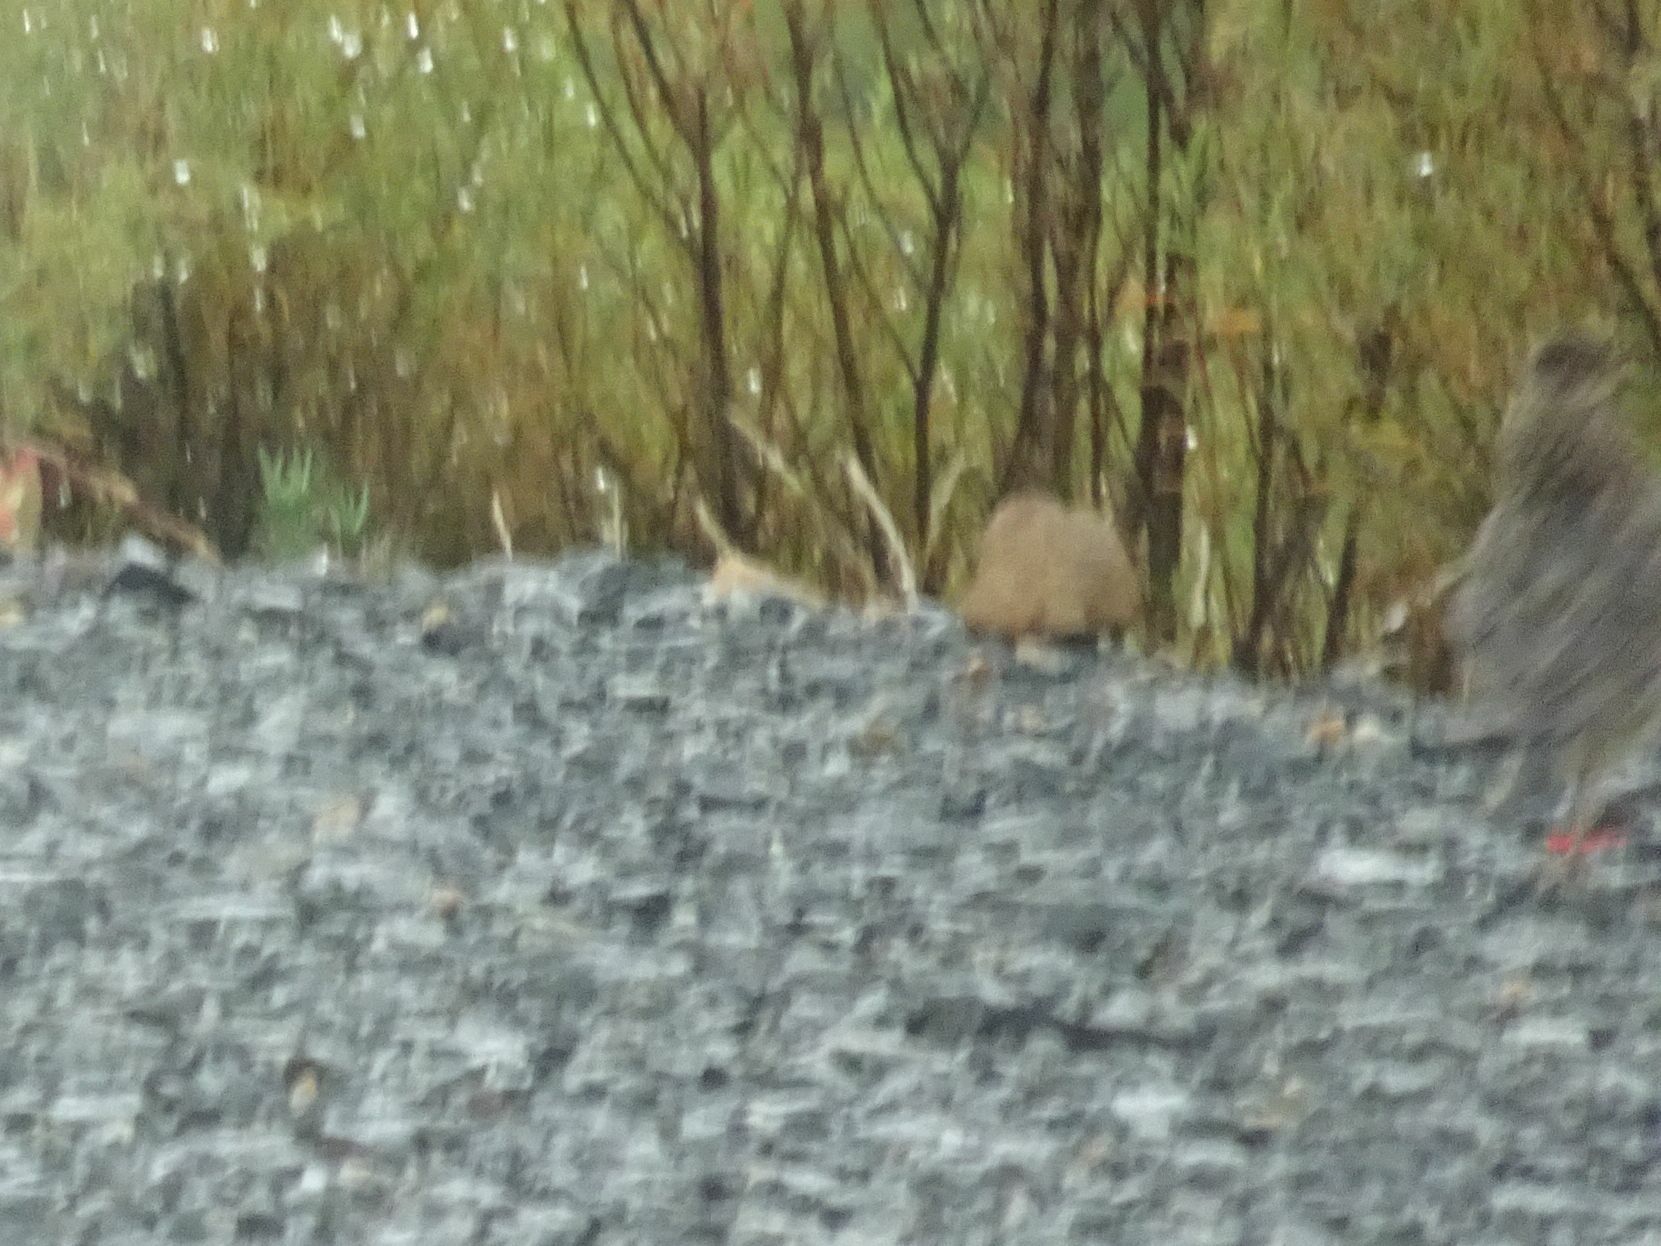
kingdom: Animalia
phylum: Chordata
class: Aves
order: Passeriformes
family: Alaudidae
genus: Galerida
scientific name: Galerida magnirostris
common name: Large-billed lark
